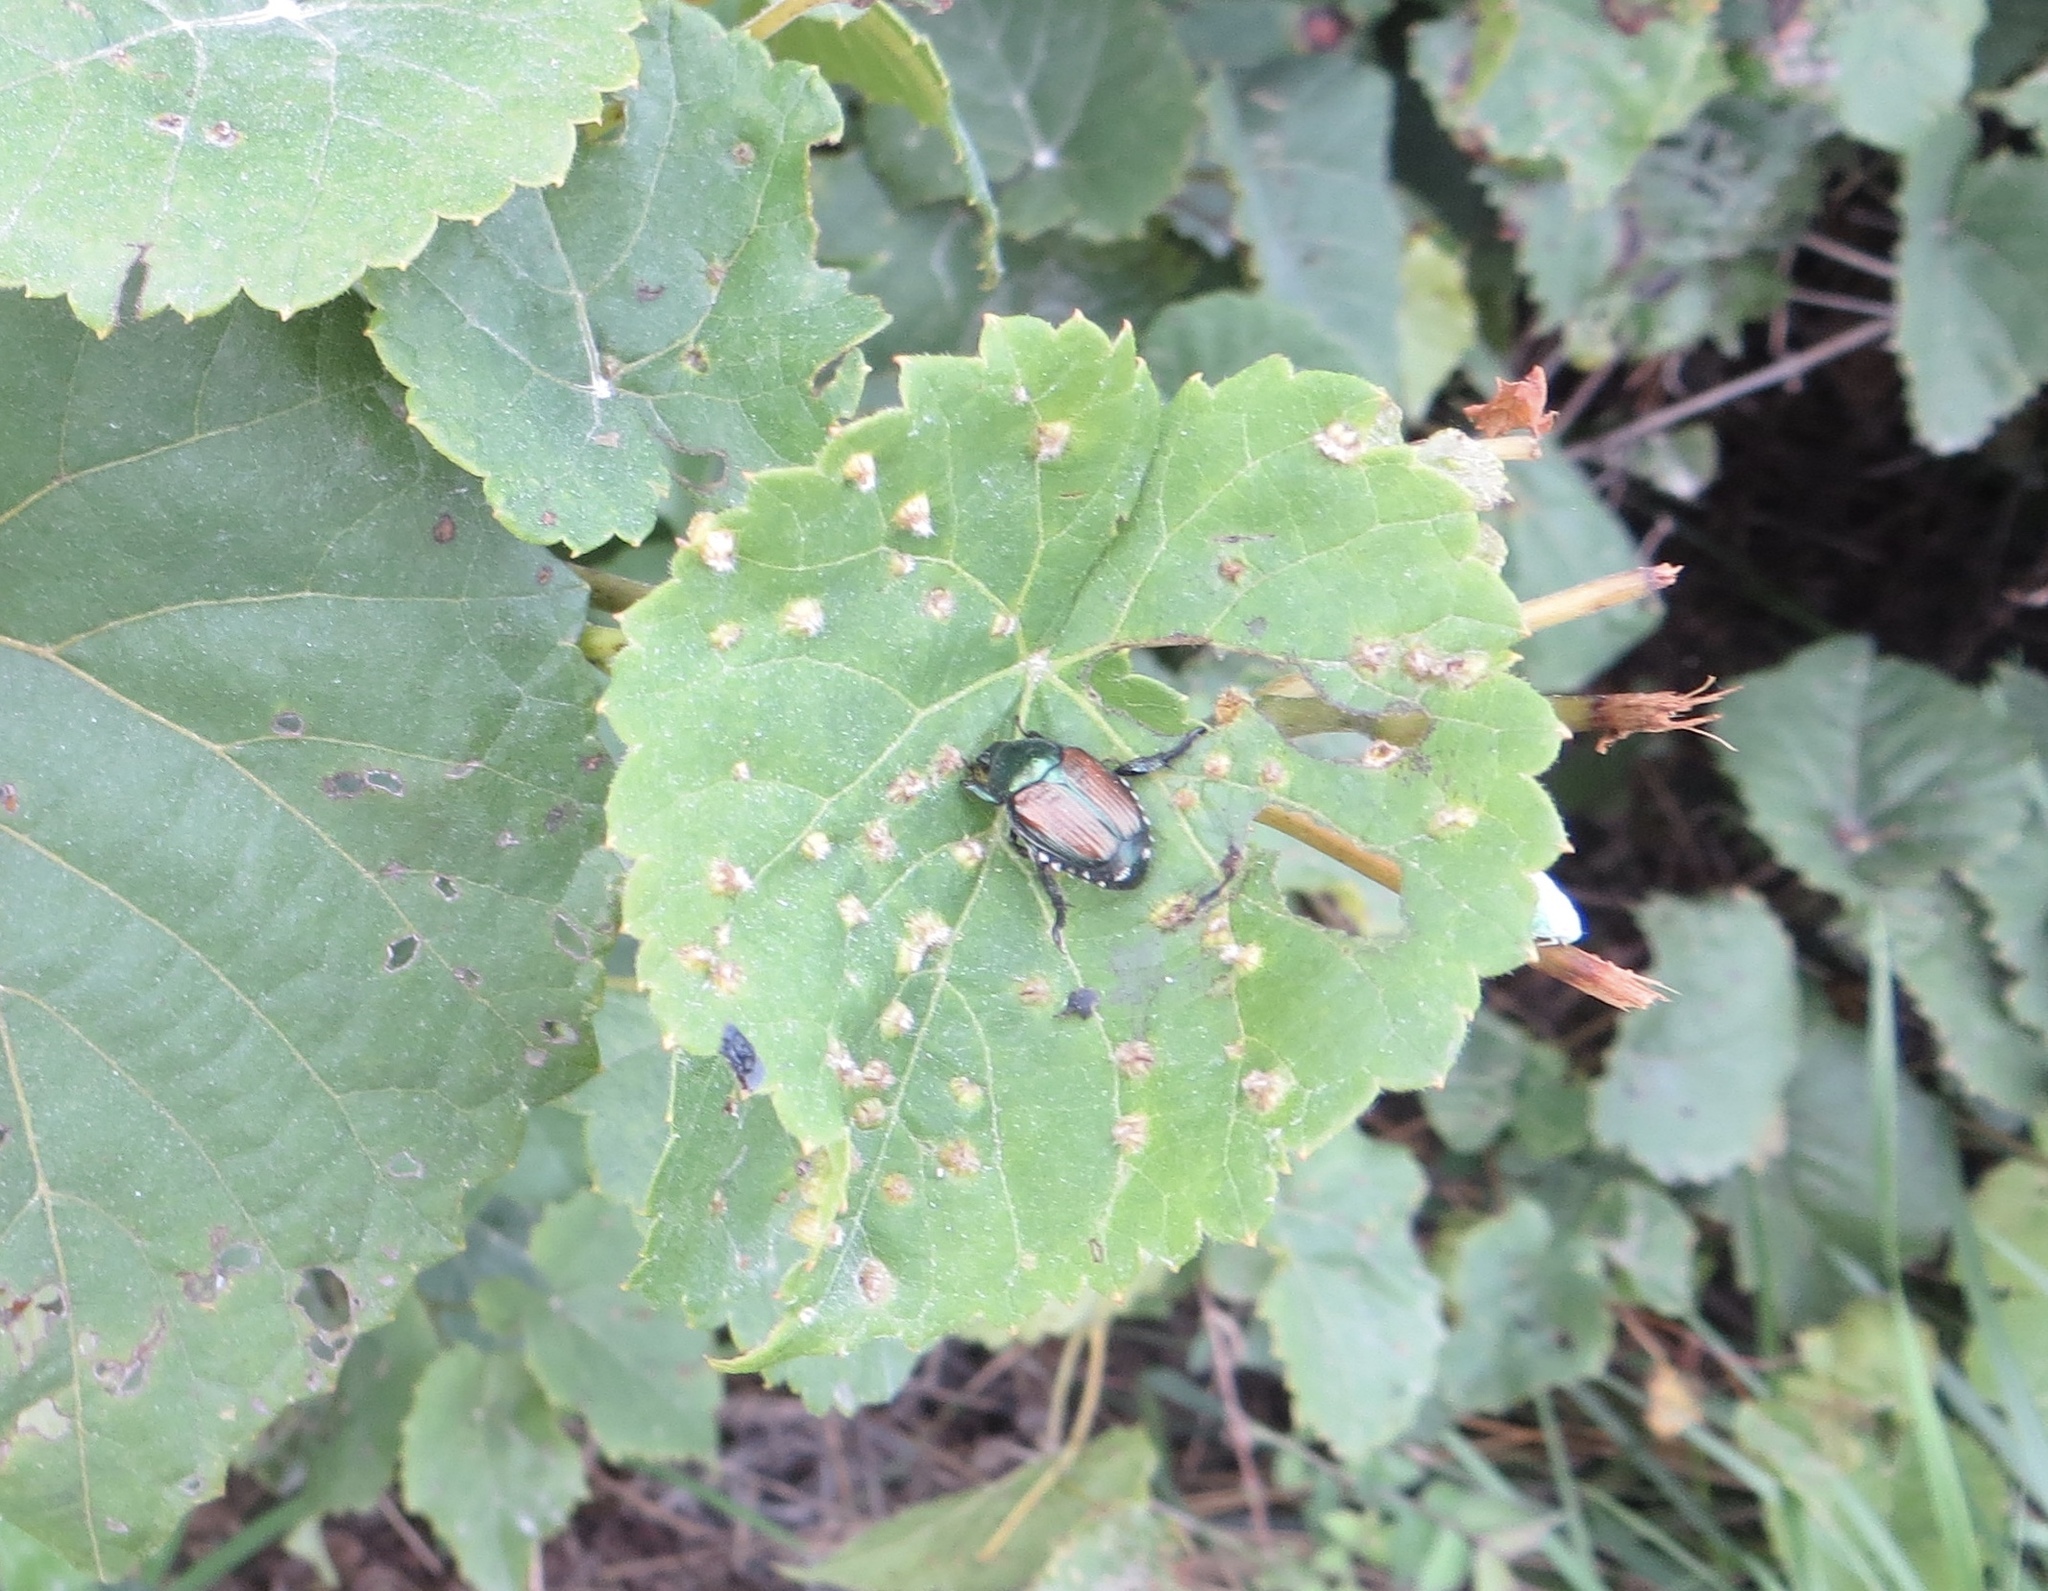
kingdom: Animalia
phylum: Arthropoda
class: Insecta
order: Coleoptera
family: Scarabaeidae
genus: Popillia
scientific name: Popillia japonica
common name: Japanese beetle
